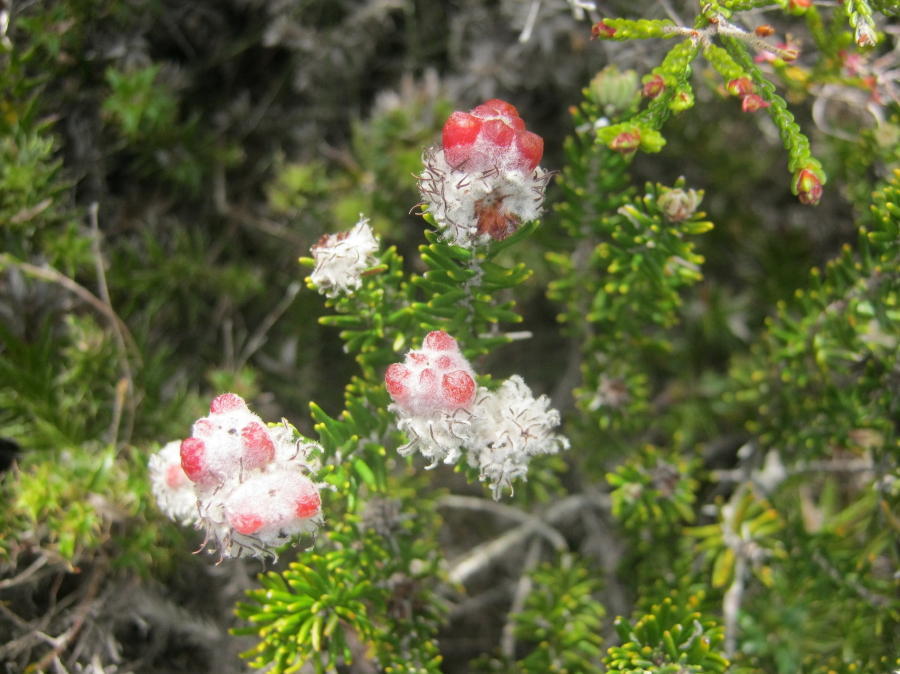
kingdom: Plantae
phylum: Tracheophyta
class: Magnoliopsida
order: Rosales
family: Rhamnaceae
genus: Trichocephalus
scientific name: Trichocephalus stipularis
